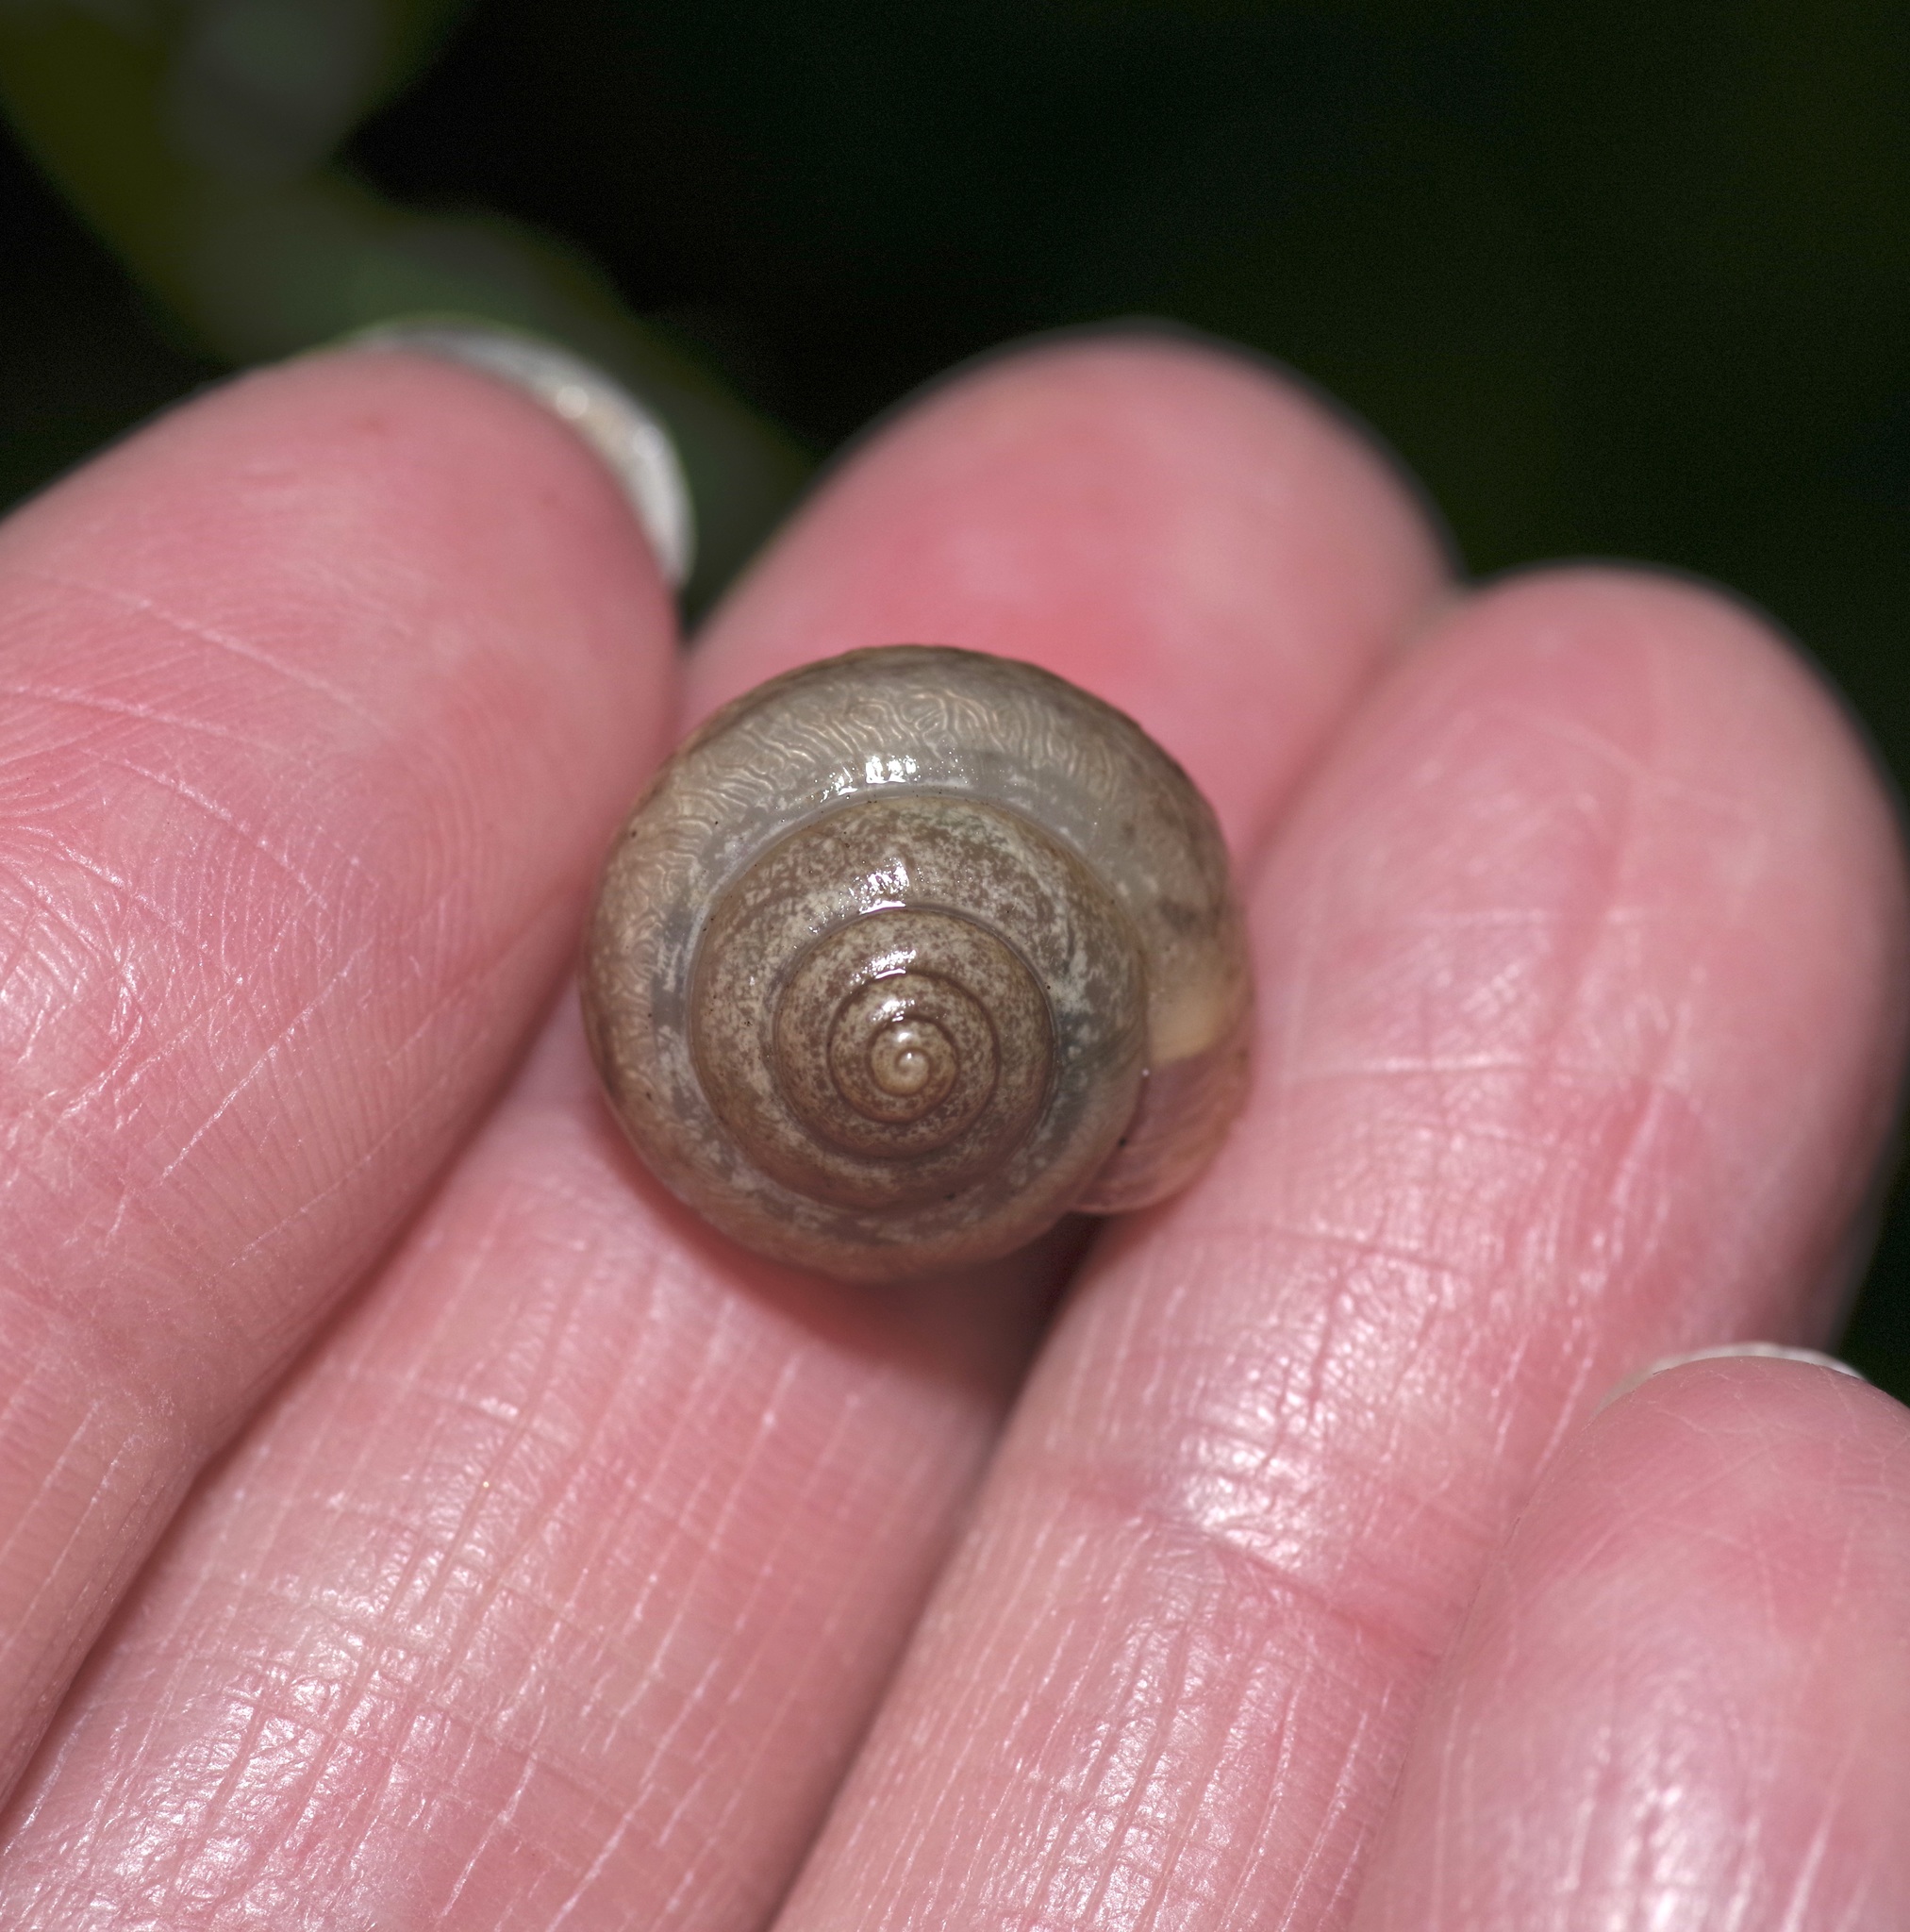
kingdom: Animalia
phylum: Mollusca
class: Gastropoda
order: Stylommatophora
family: Camaenidae
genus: Bradybaena
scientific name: Bradybaena similaris
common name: Asian trampsnail
